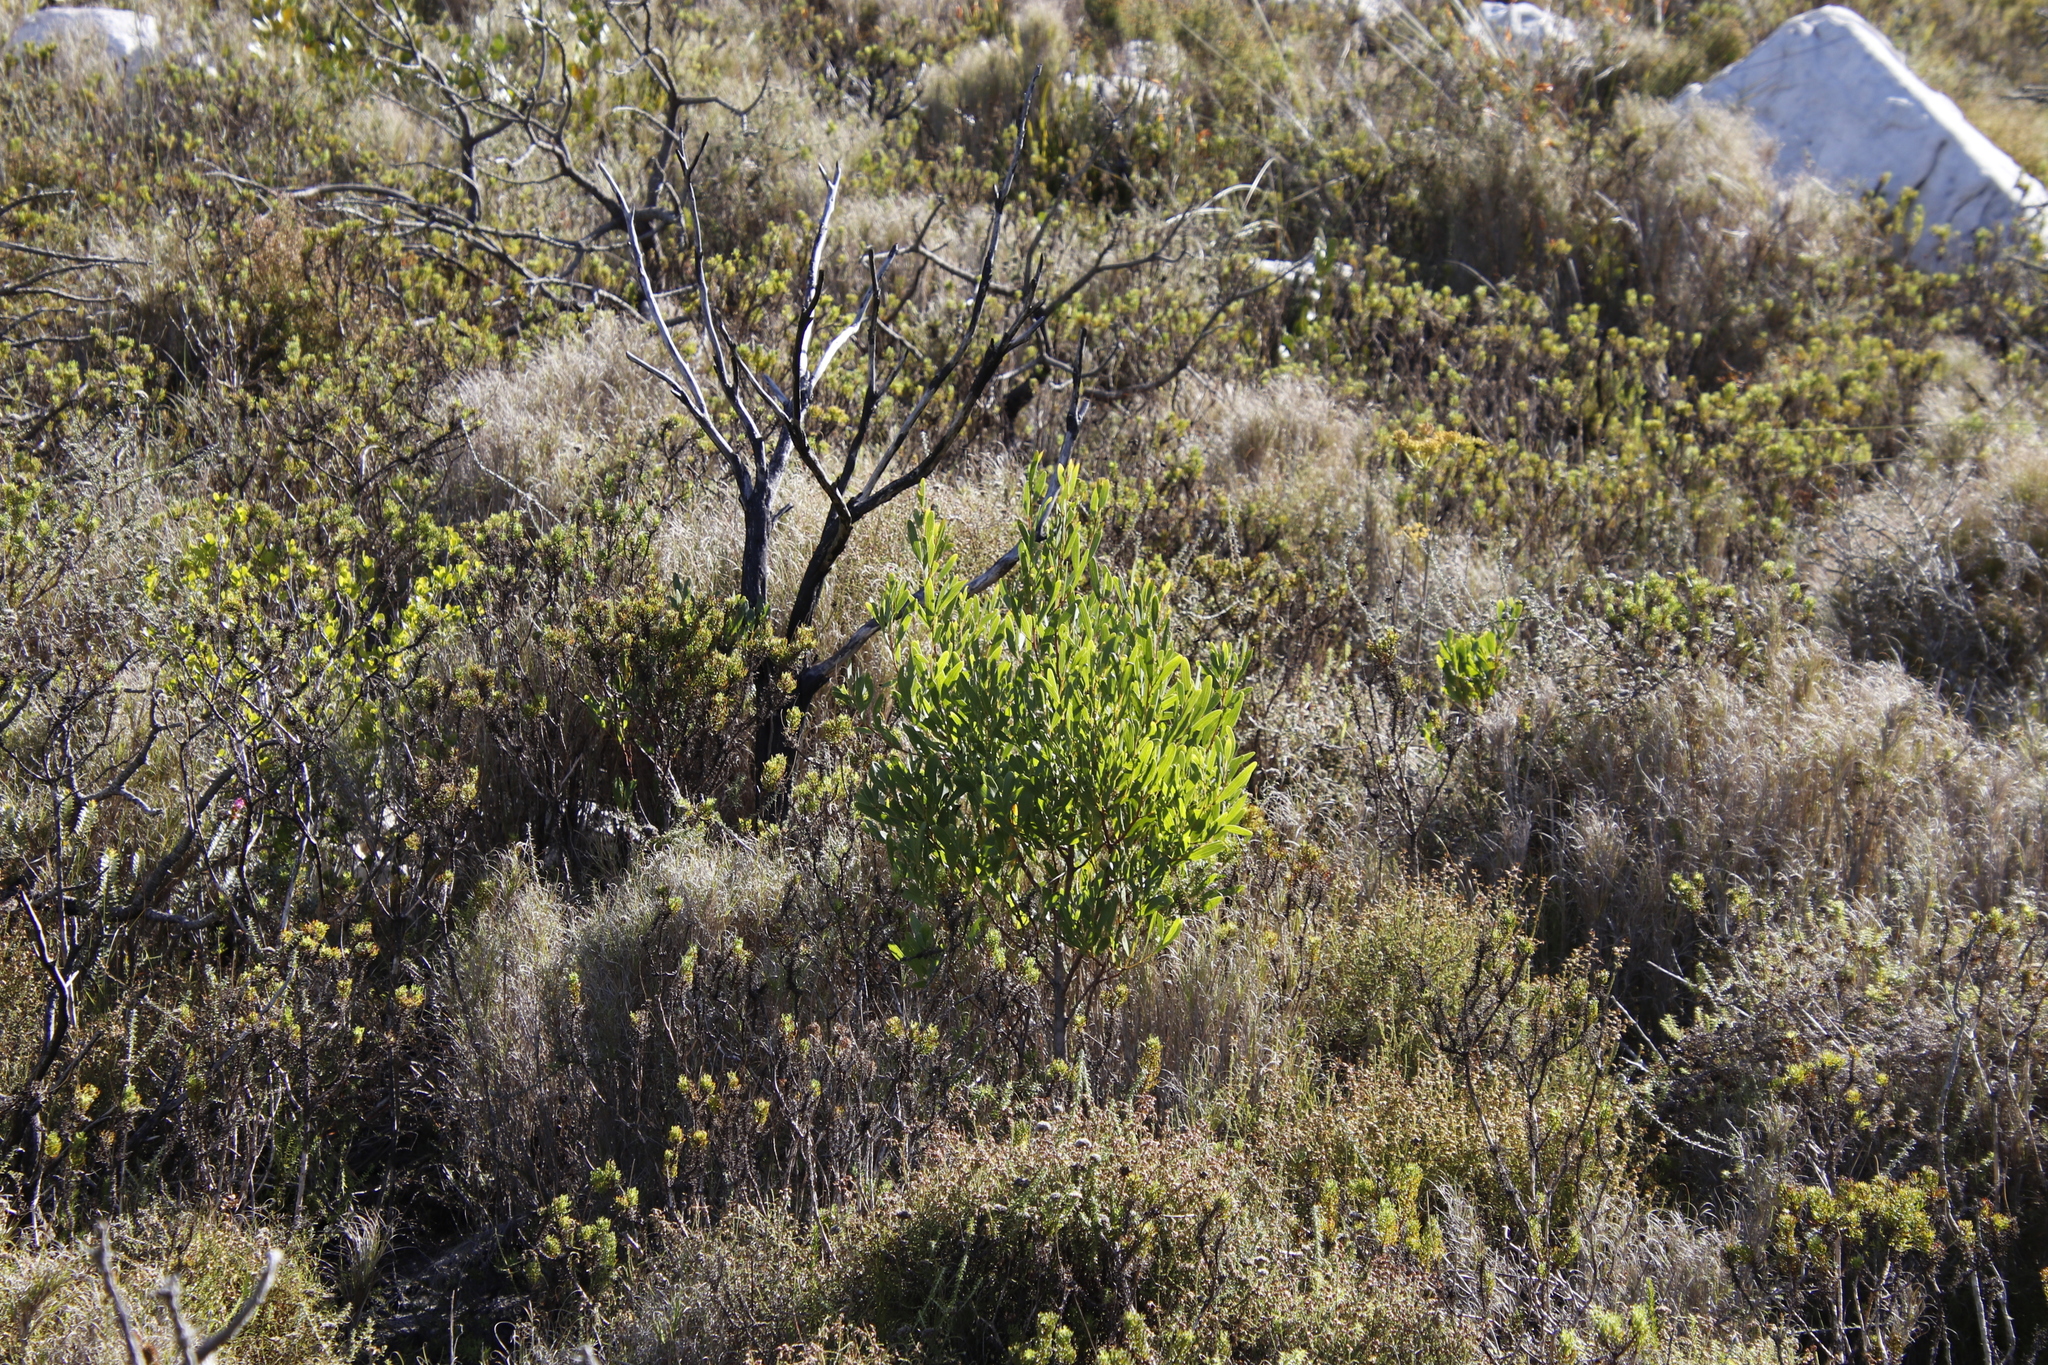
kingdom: Plantae
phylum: Tracheophyta
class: Magnoliopsida
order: Fabales
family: Fabaceae
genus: Acacia
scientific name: Acacia cyclops
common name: Coastal wattle
